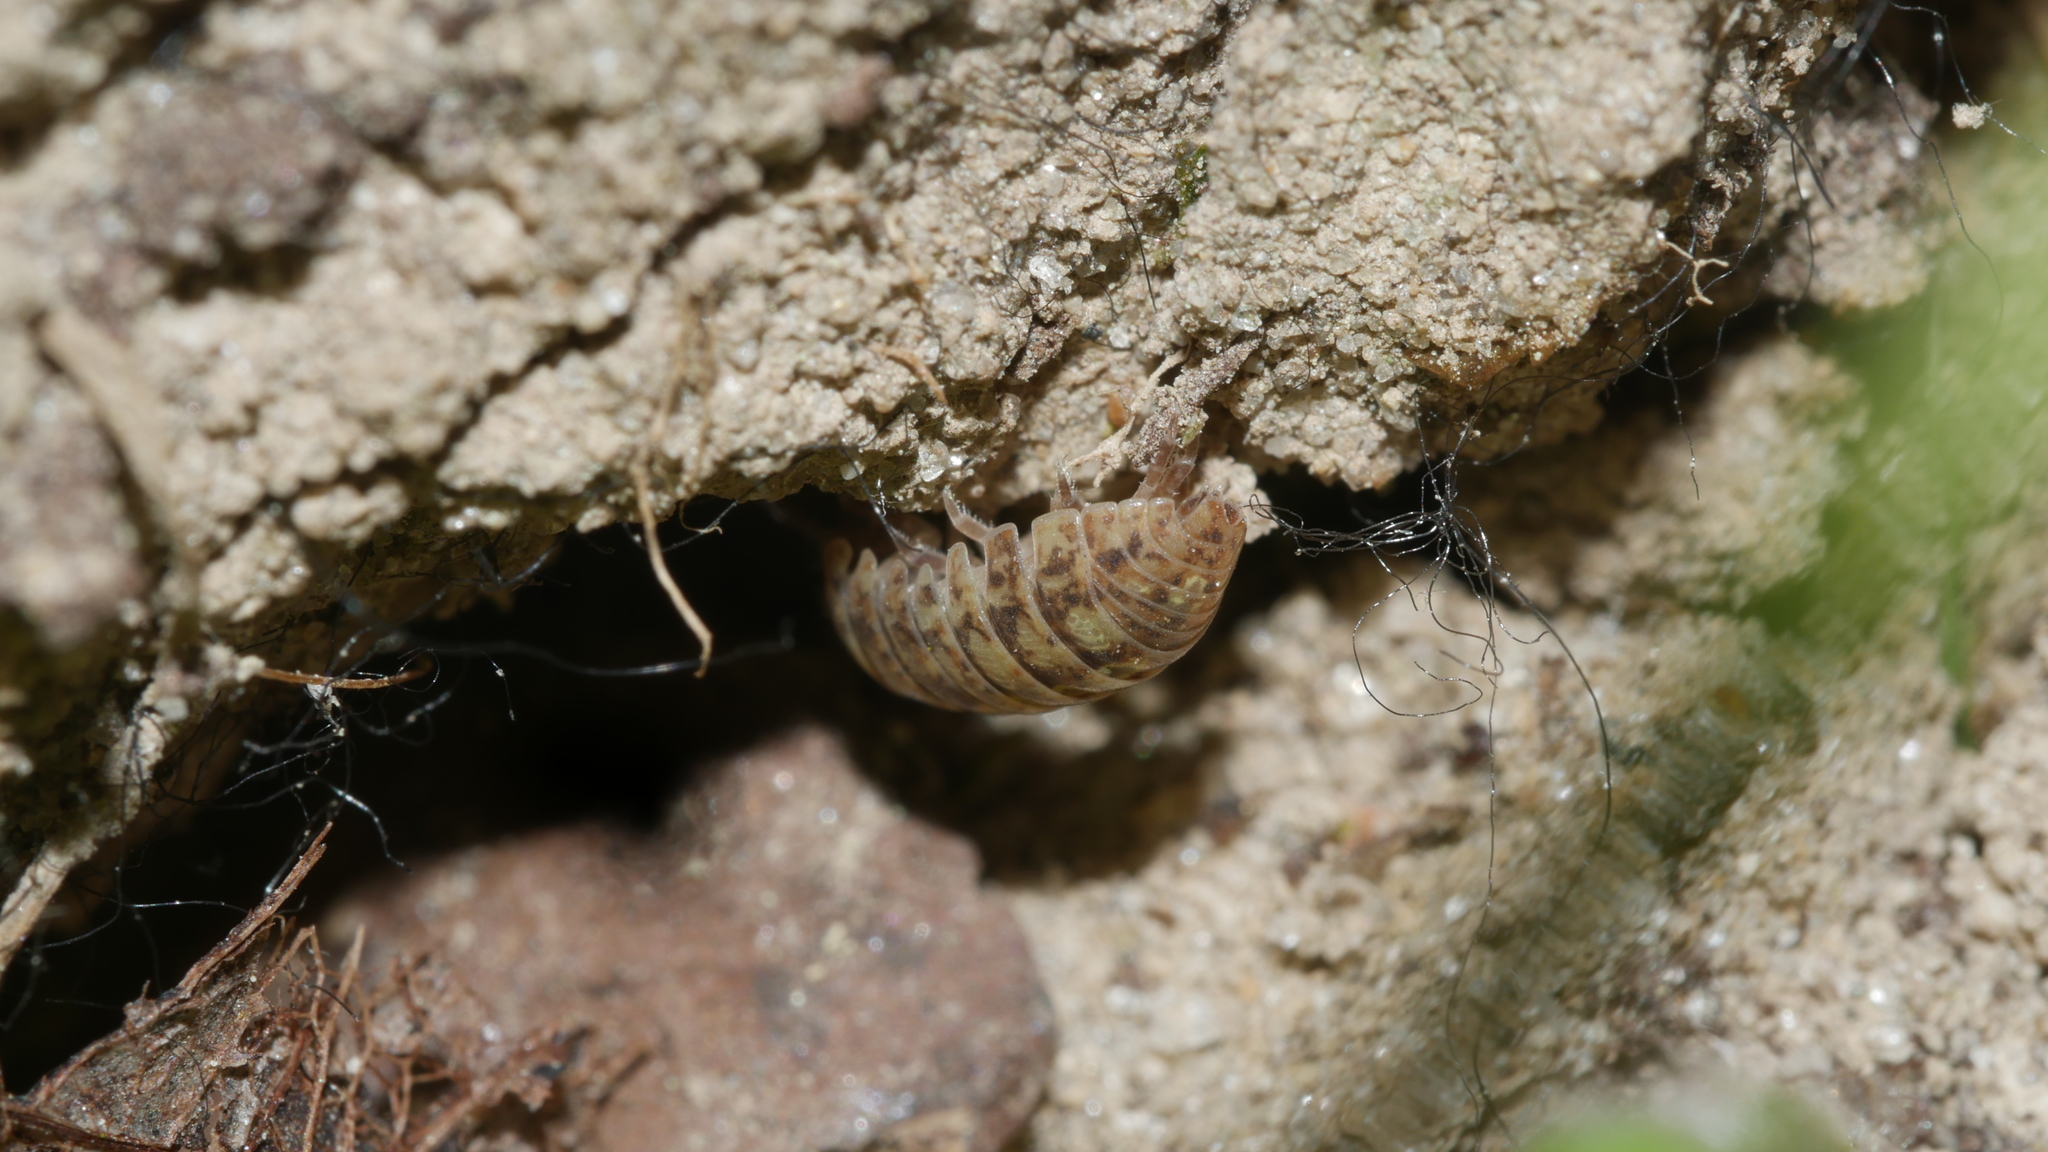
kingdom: Animalia
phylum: Arthropoda
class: Malacostraca
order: Isopoda
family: Armadillidiidae
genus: Armadillidium
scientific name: Armadillidium vulgare
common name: Common pill woodlouse
